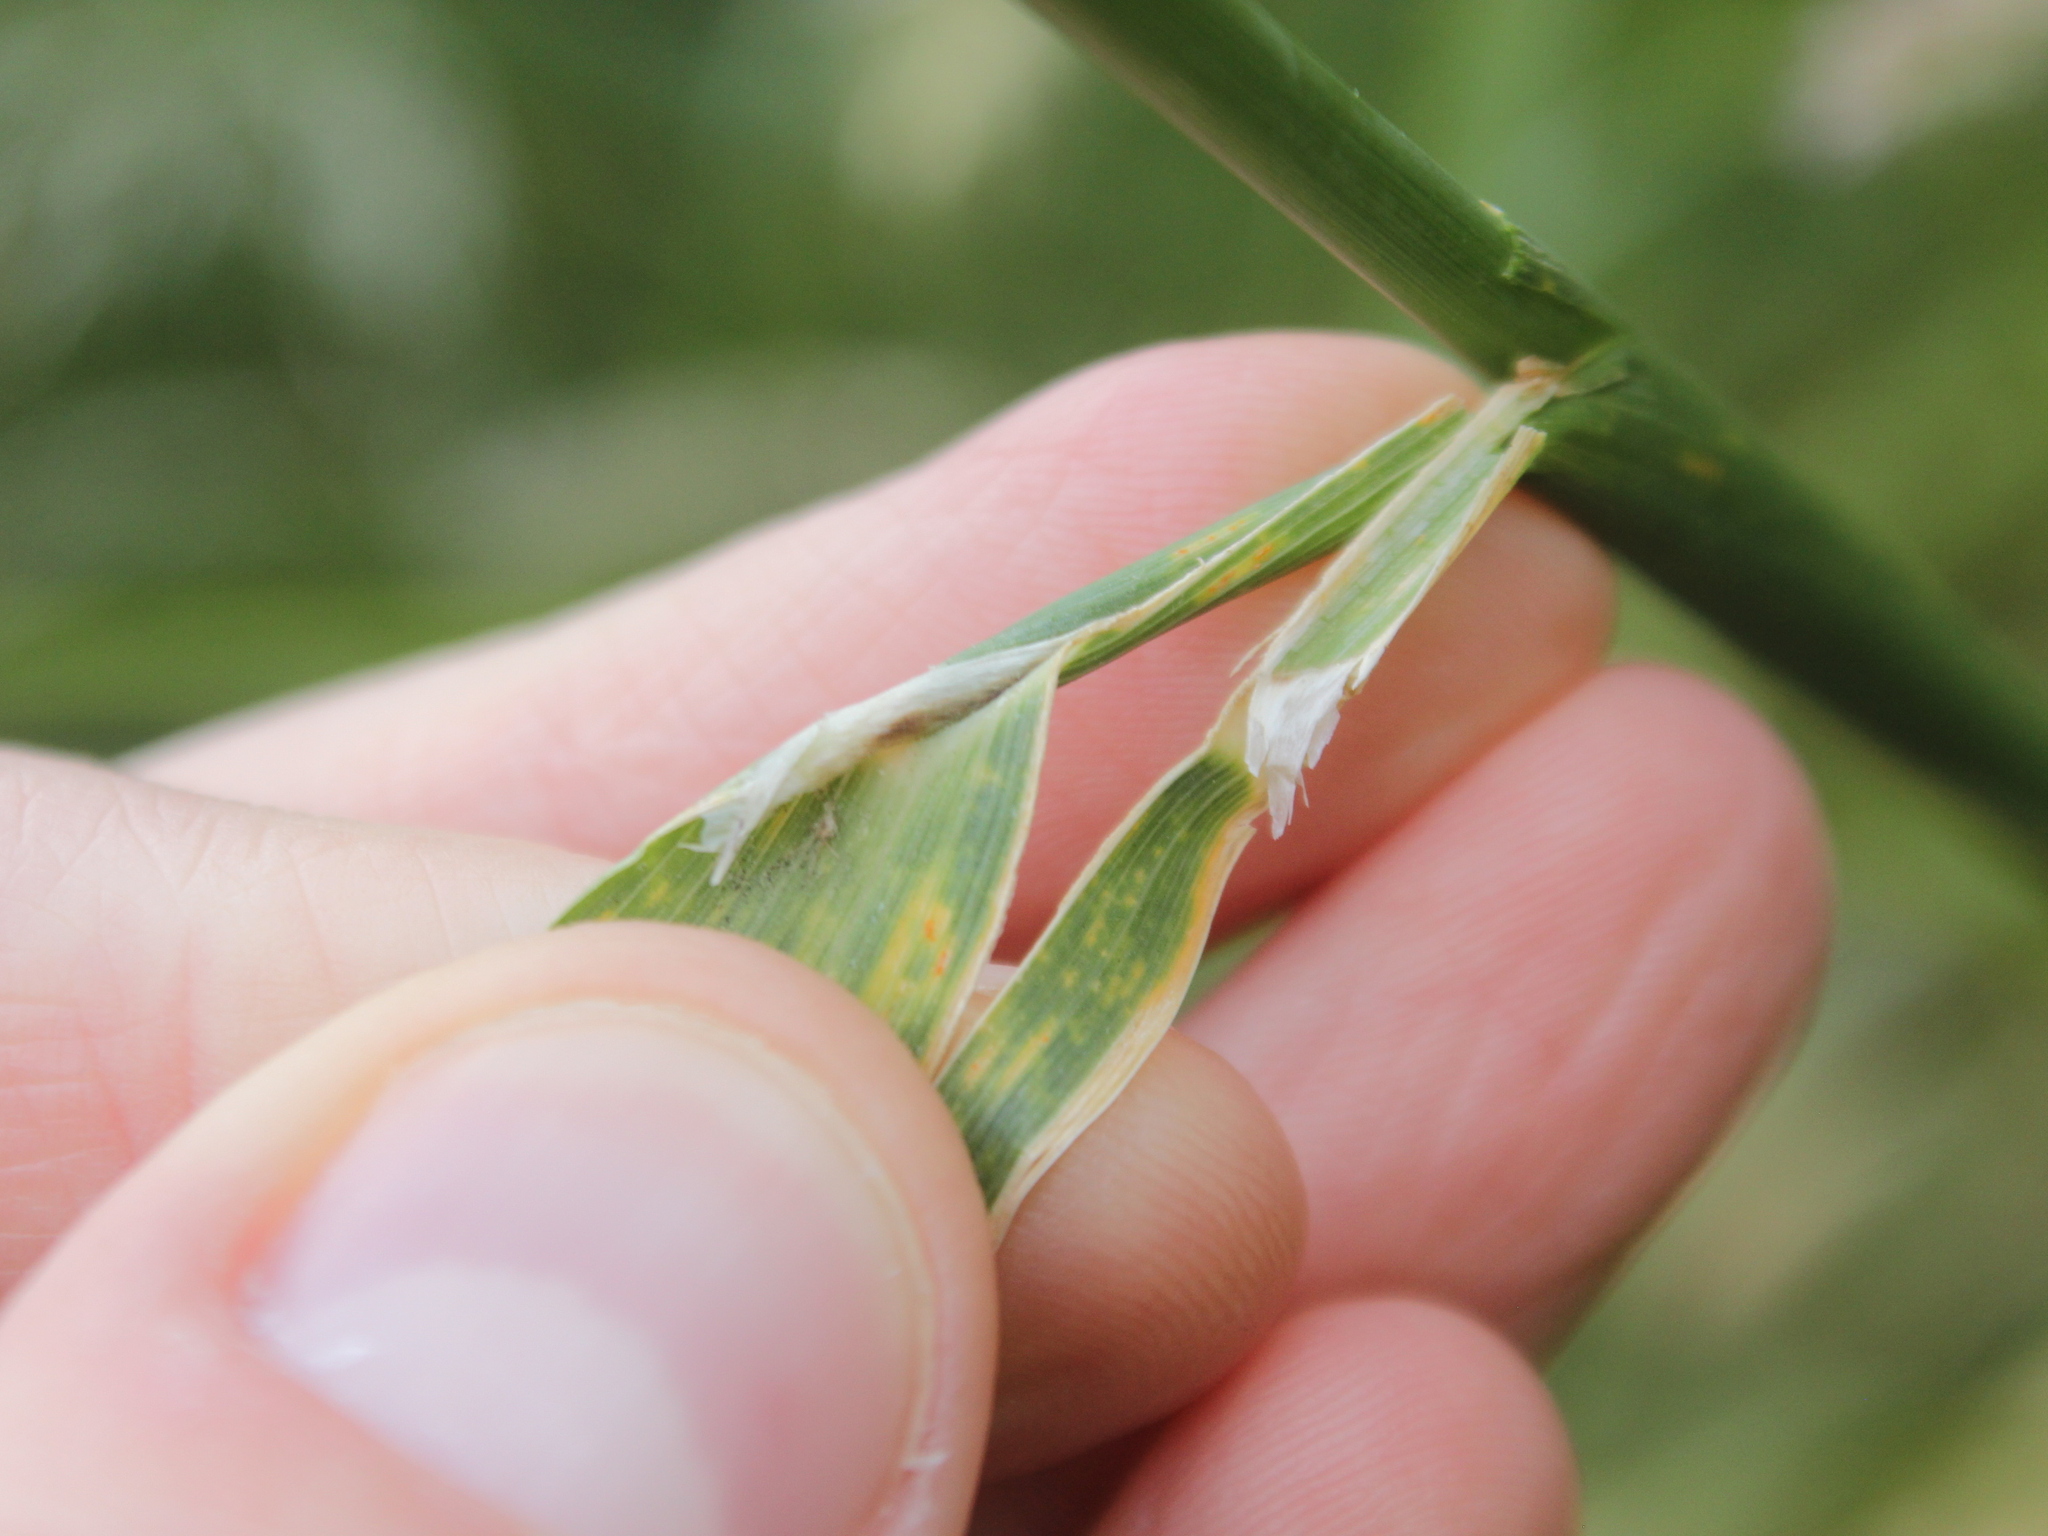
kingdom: Plantae
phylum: Tracheophyta
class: Liliopsida
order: Poales
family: Poaceae
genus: Phleum
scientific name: Phleum pratense
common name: Timothy grass
